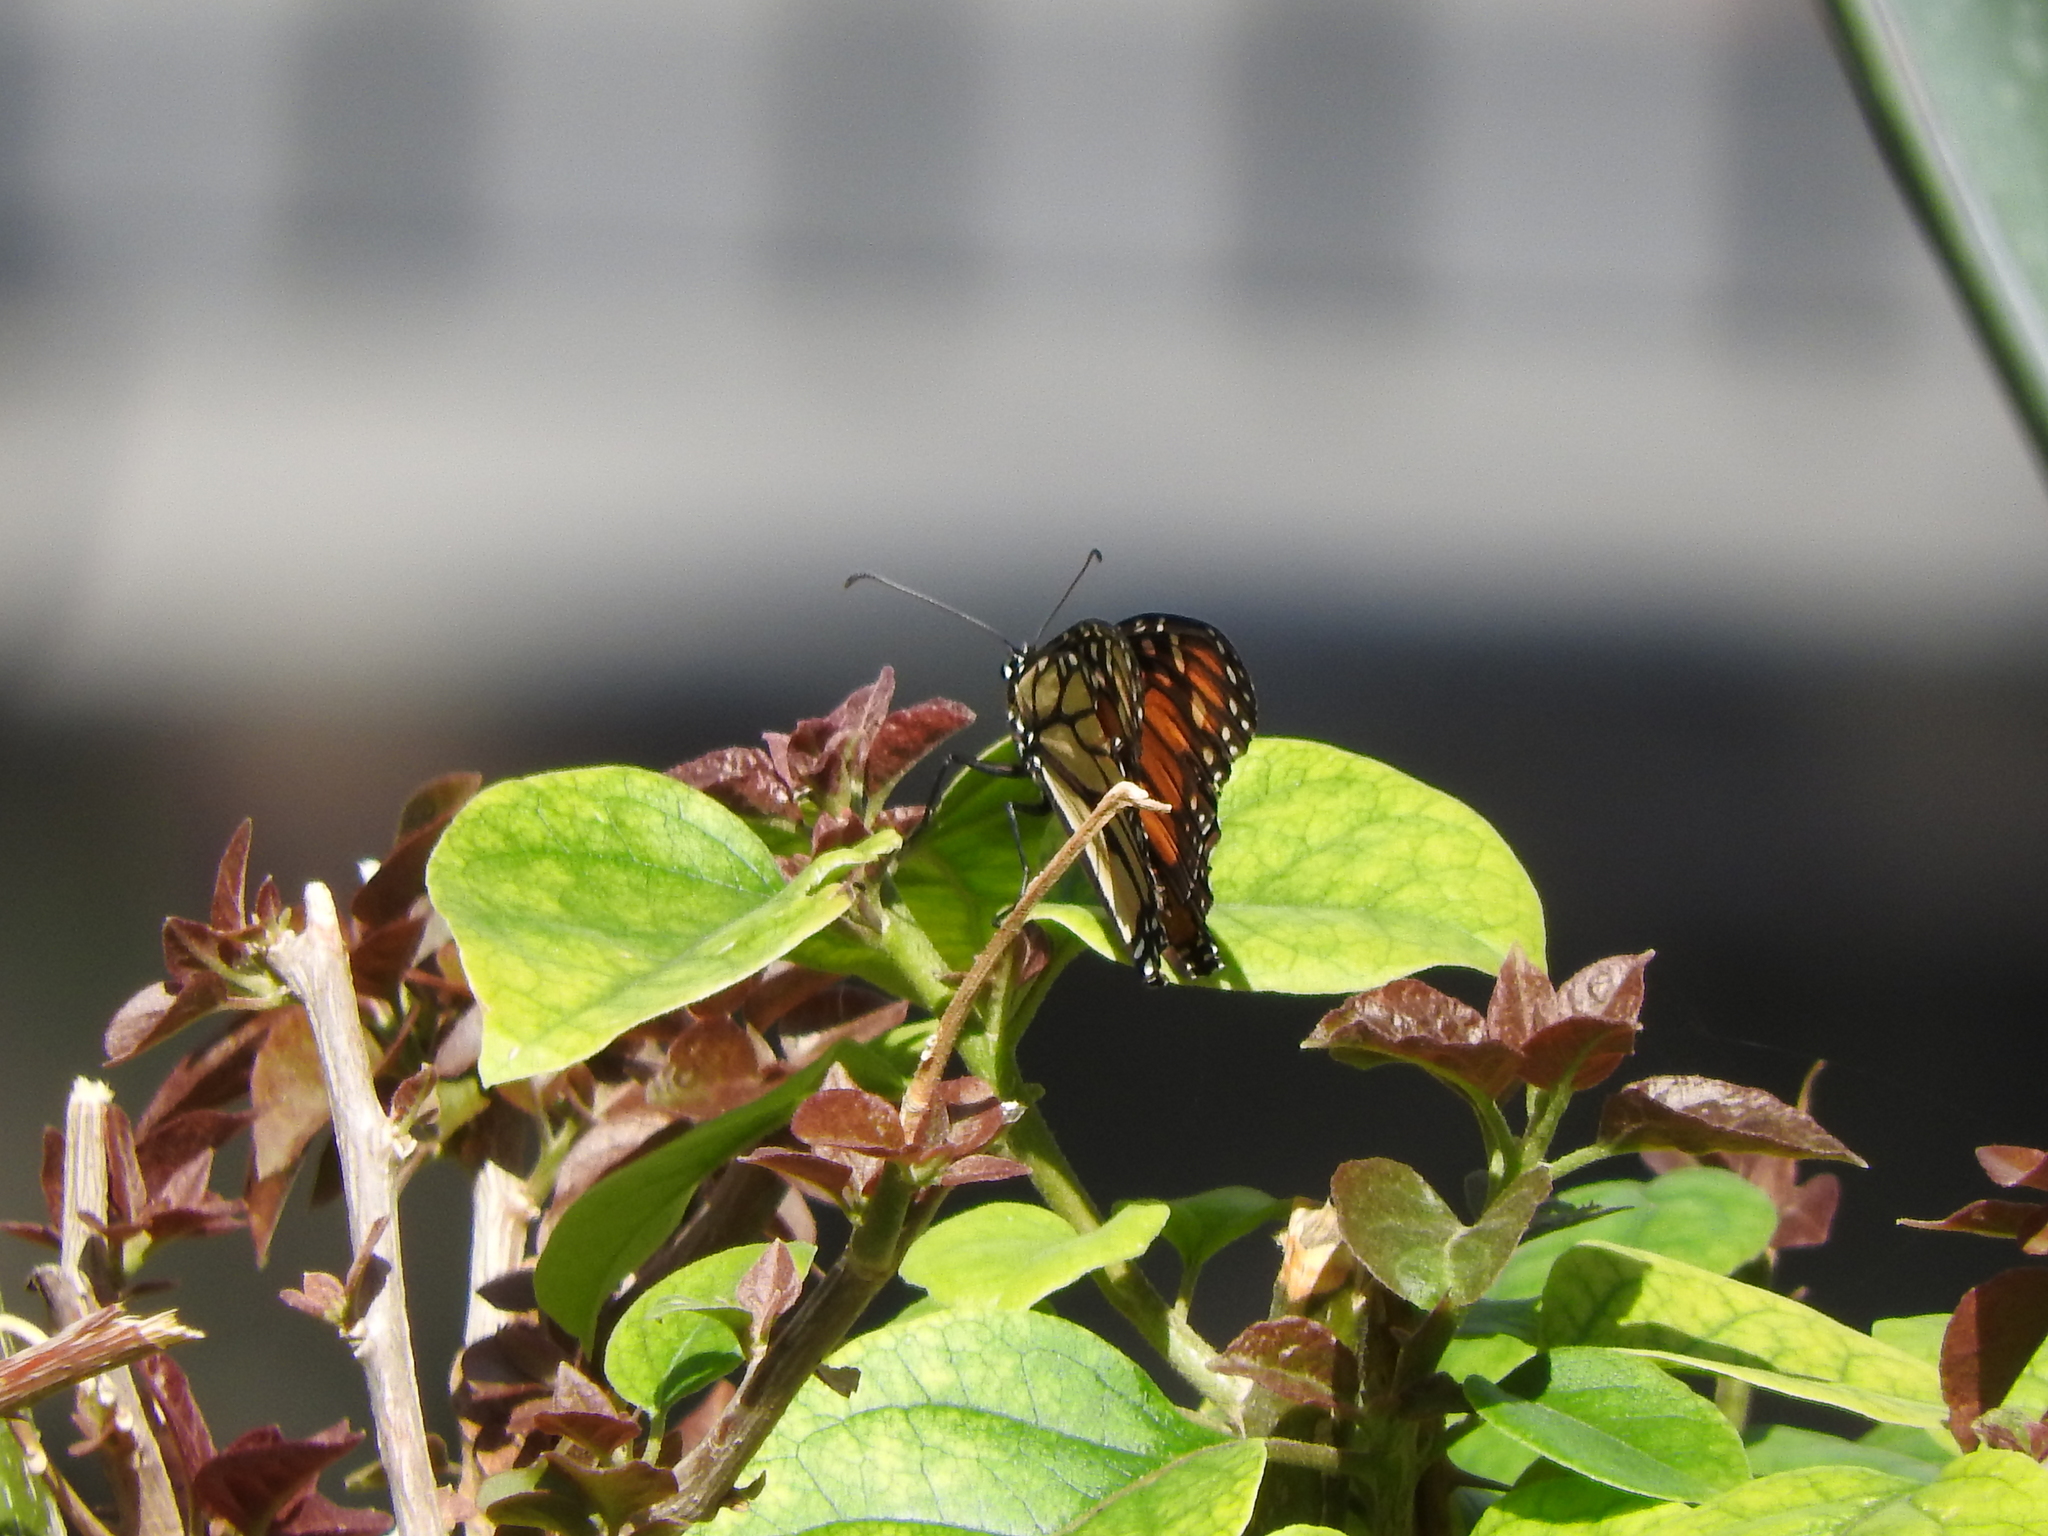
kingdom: Animalia
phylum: Arthropoda
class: Insecta
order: Lepidoptera
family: Nymphalidae
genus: Danaus
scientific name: Danaus plexippus
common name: Monarch
